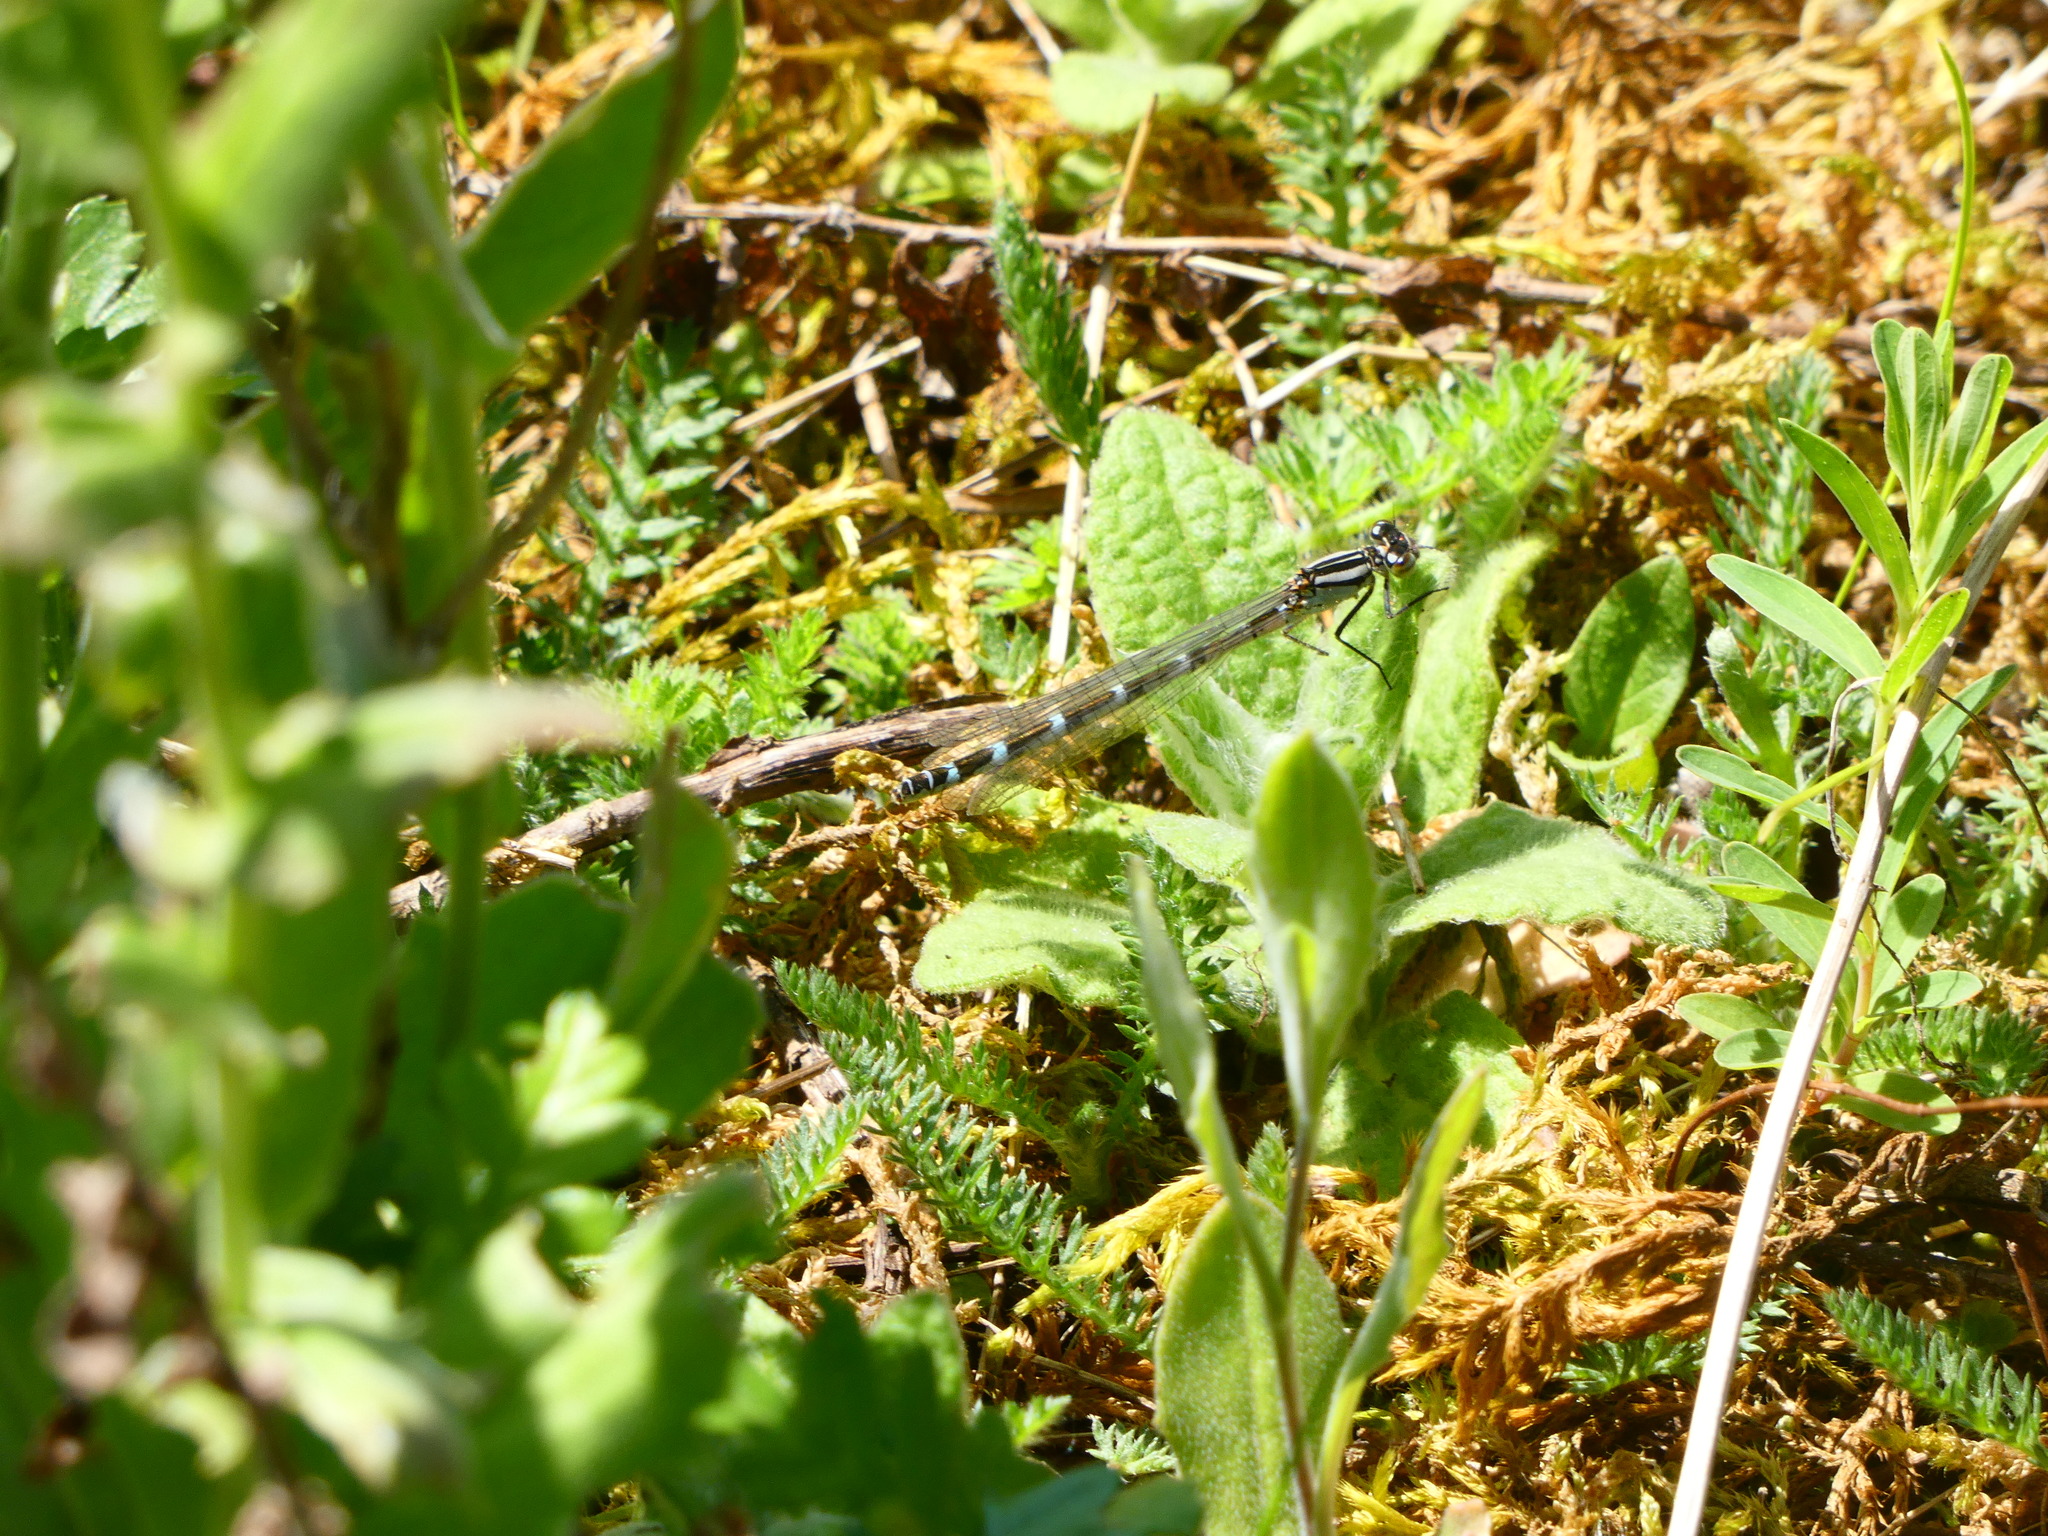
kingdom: Animalia
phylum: Arthropoda
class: Insecta
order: Odonata
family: Coenagrionidae
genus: Enallagma
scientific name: Enallagma cyathigerum
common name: Common blue damselfly
